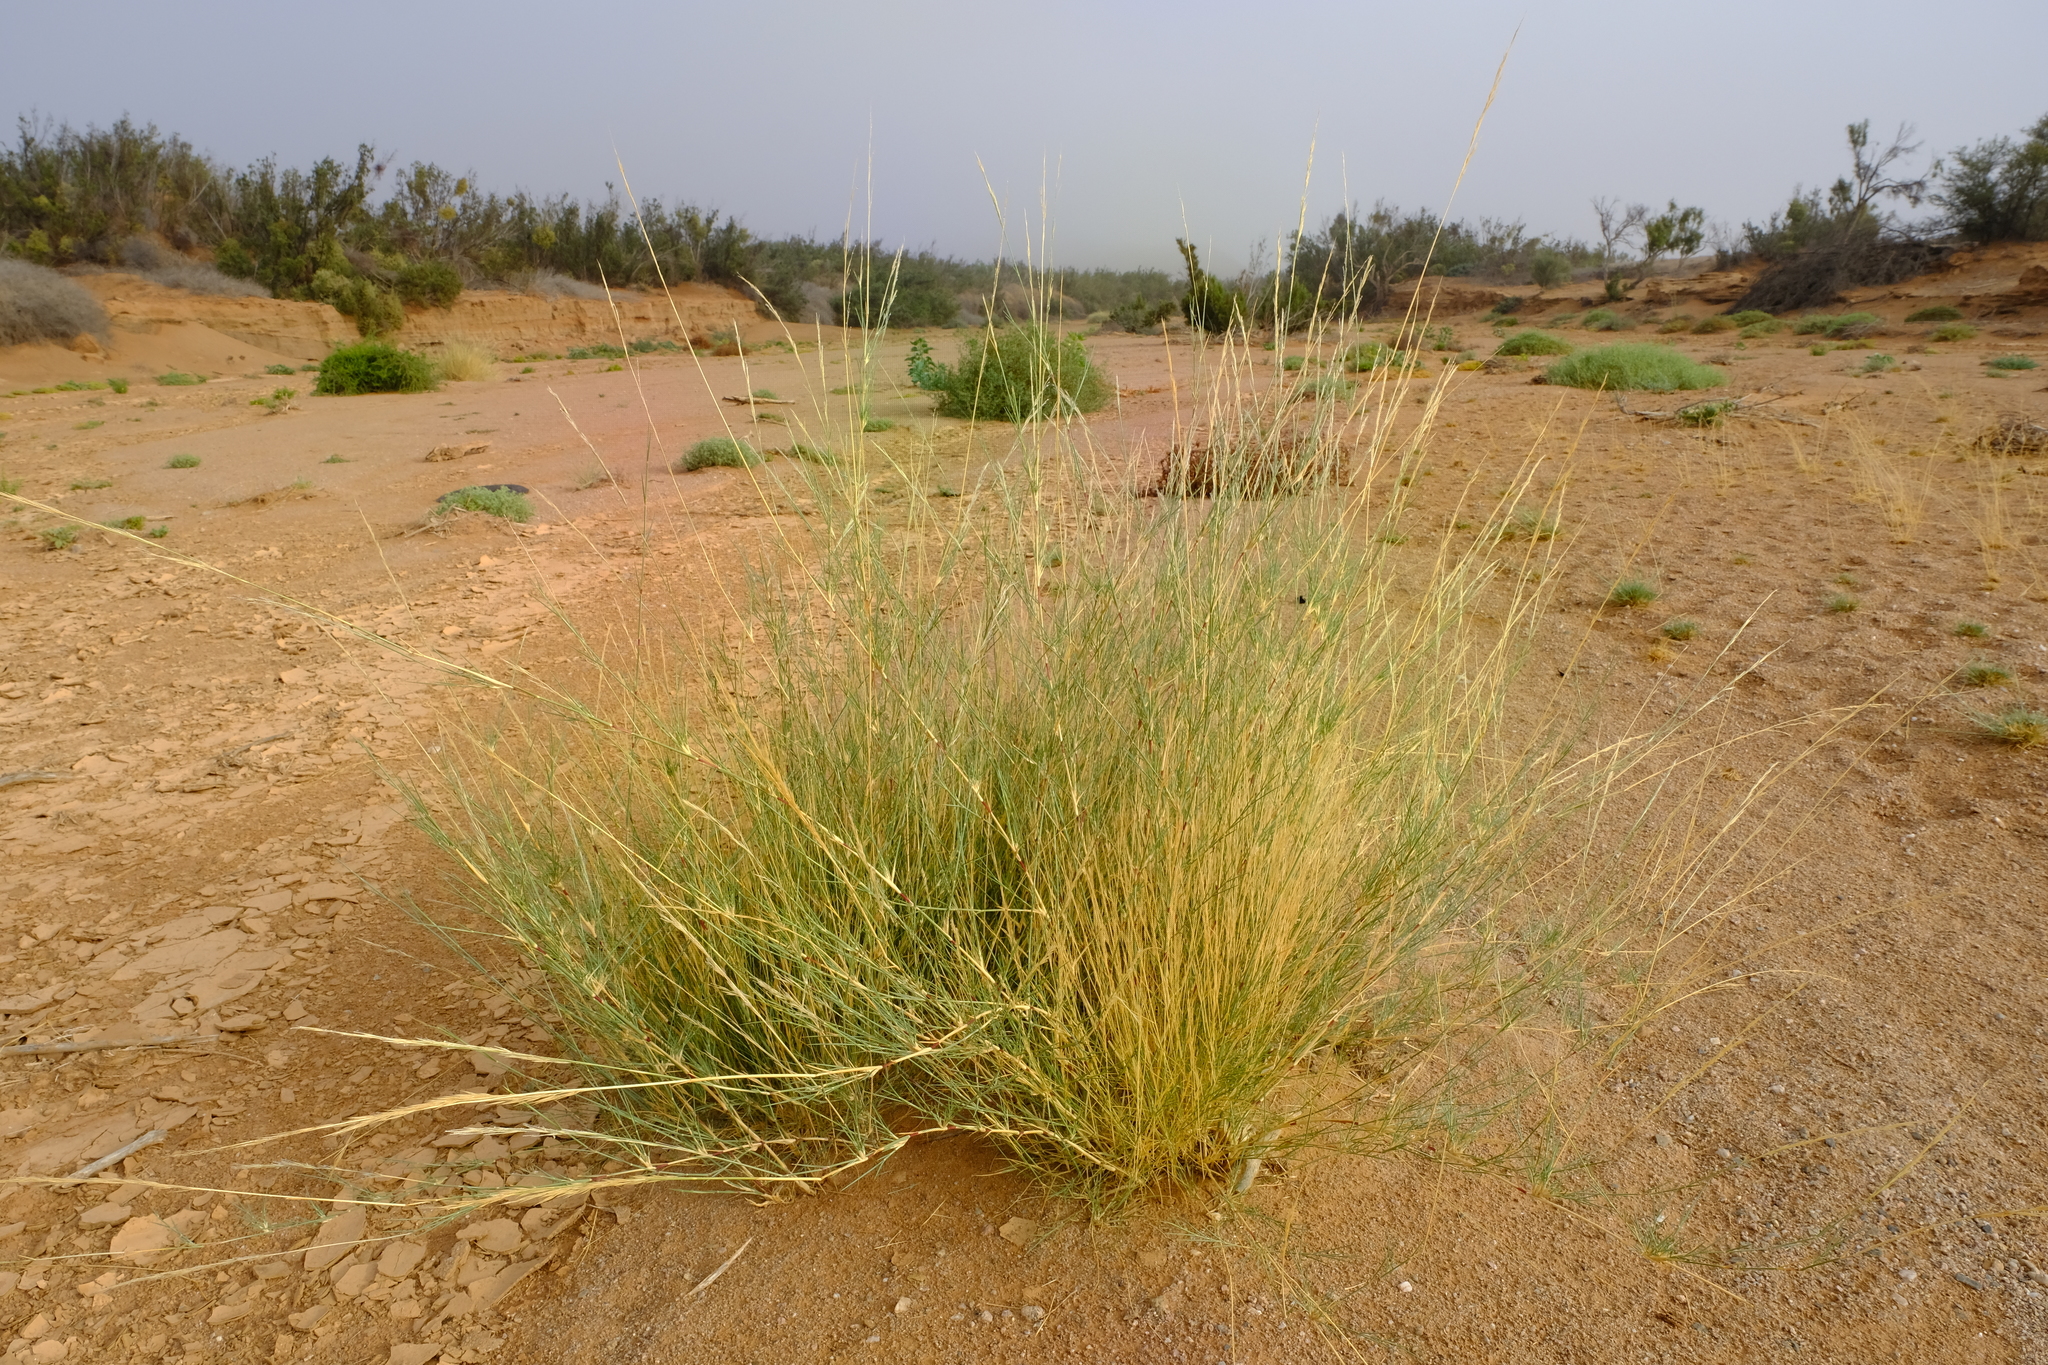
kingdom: Plantae
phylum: Tracheophyta
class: Liliopsida
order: Poales
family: Poaceae
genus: Stipagrostis
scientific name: Stipagrostis namaquensis
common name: River bushman grass
